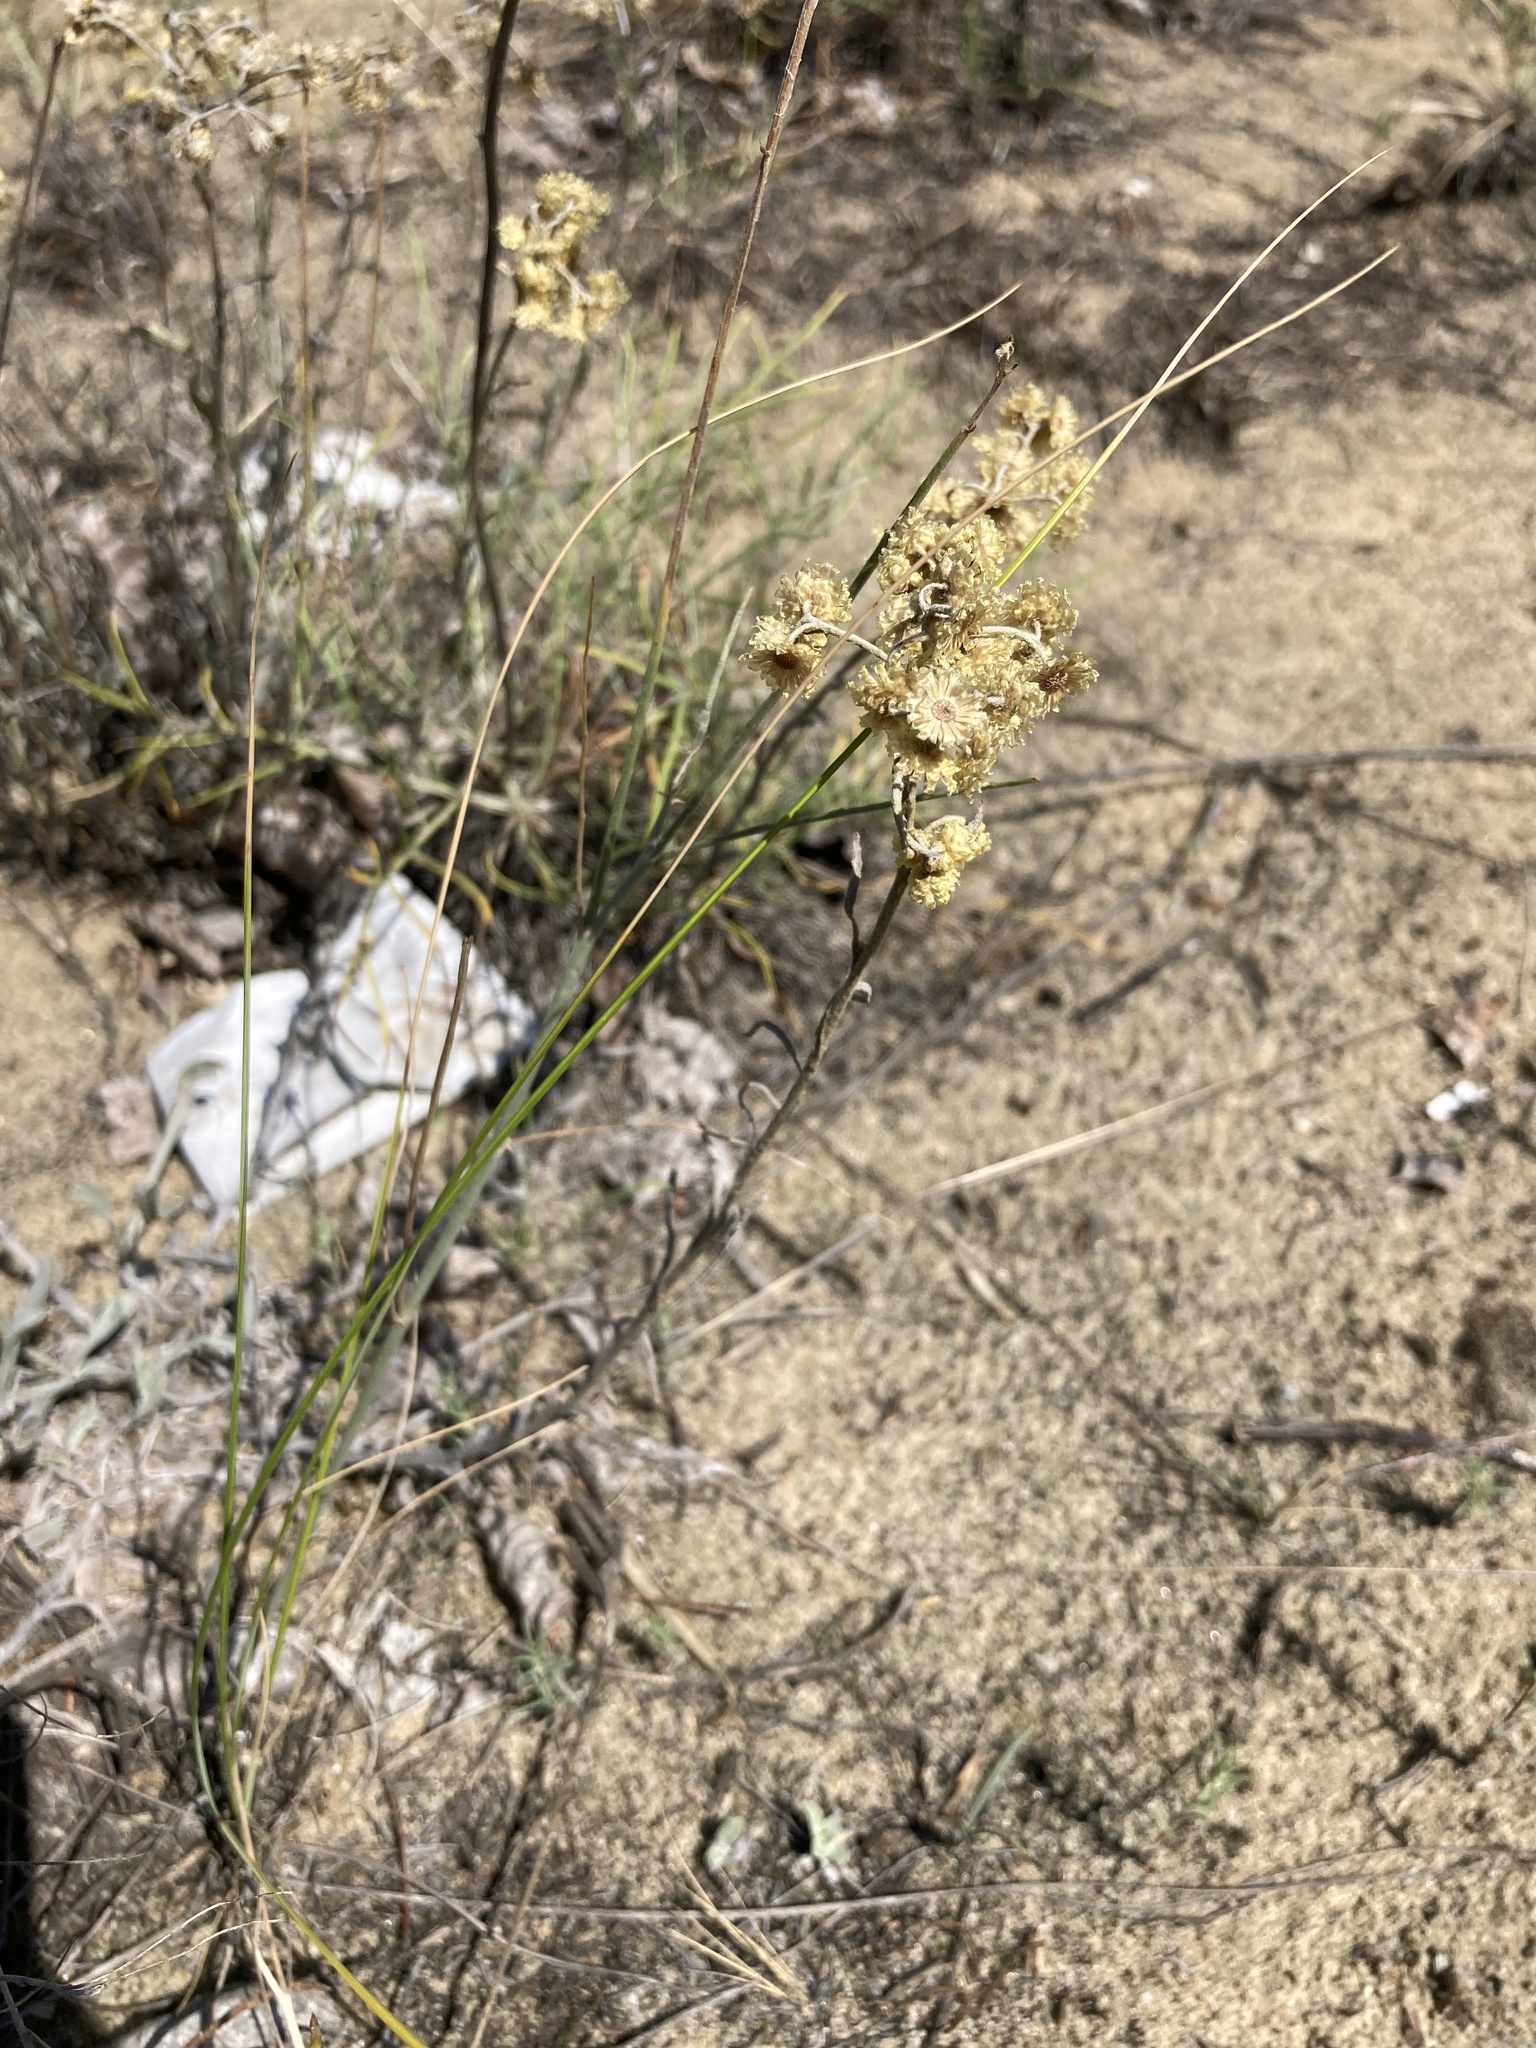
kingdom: Plantae
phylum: Tracheophyta
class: Magnoliopsida
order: Asterales
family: Asteraceae
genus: Helichrysum
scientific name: Helichrysum arenarium
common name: Strawflower
